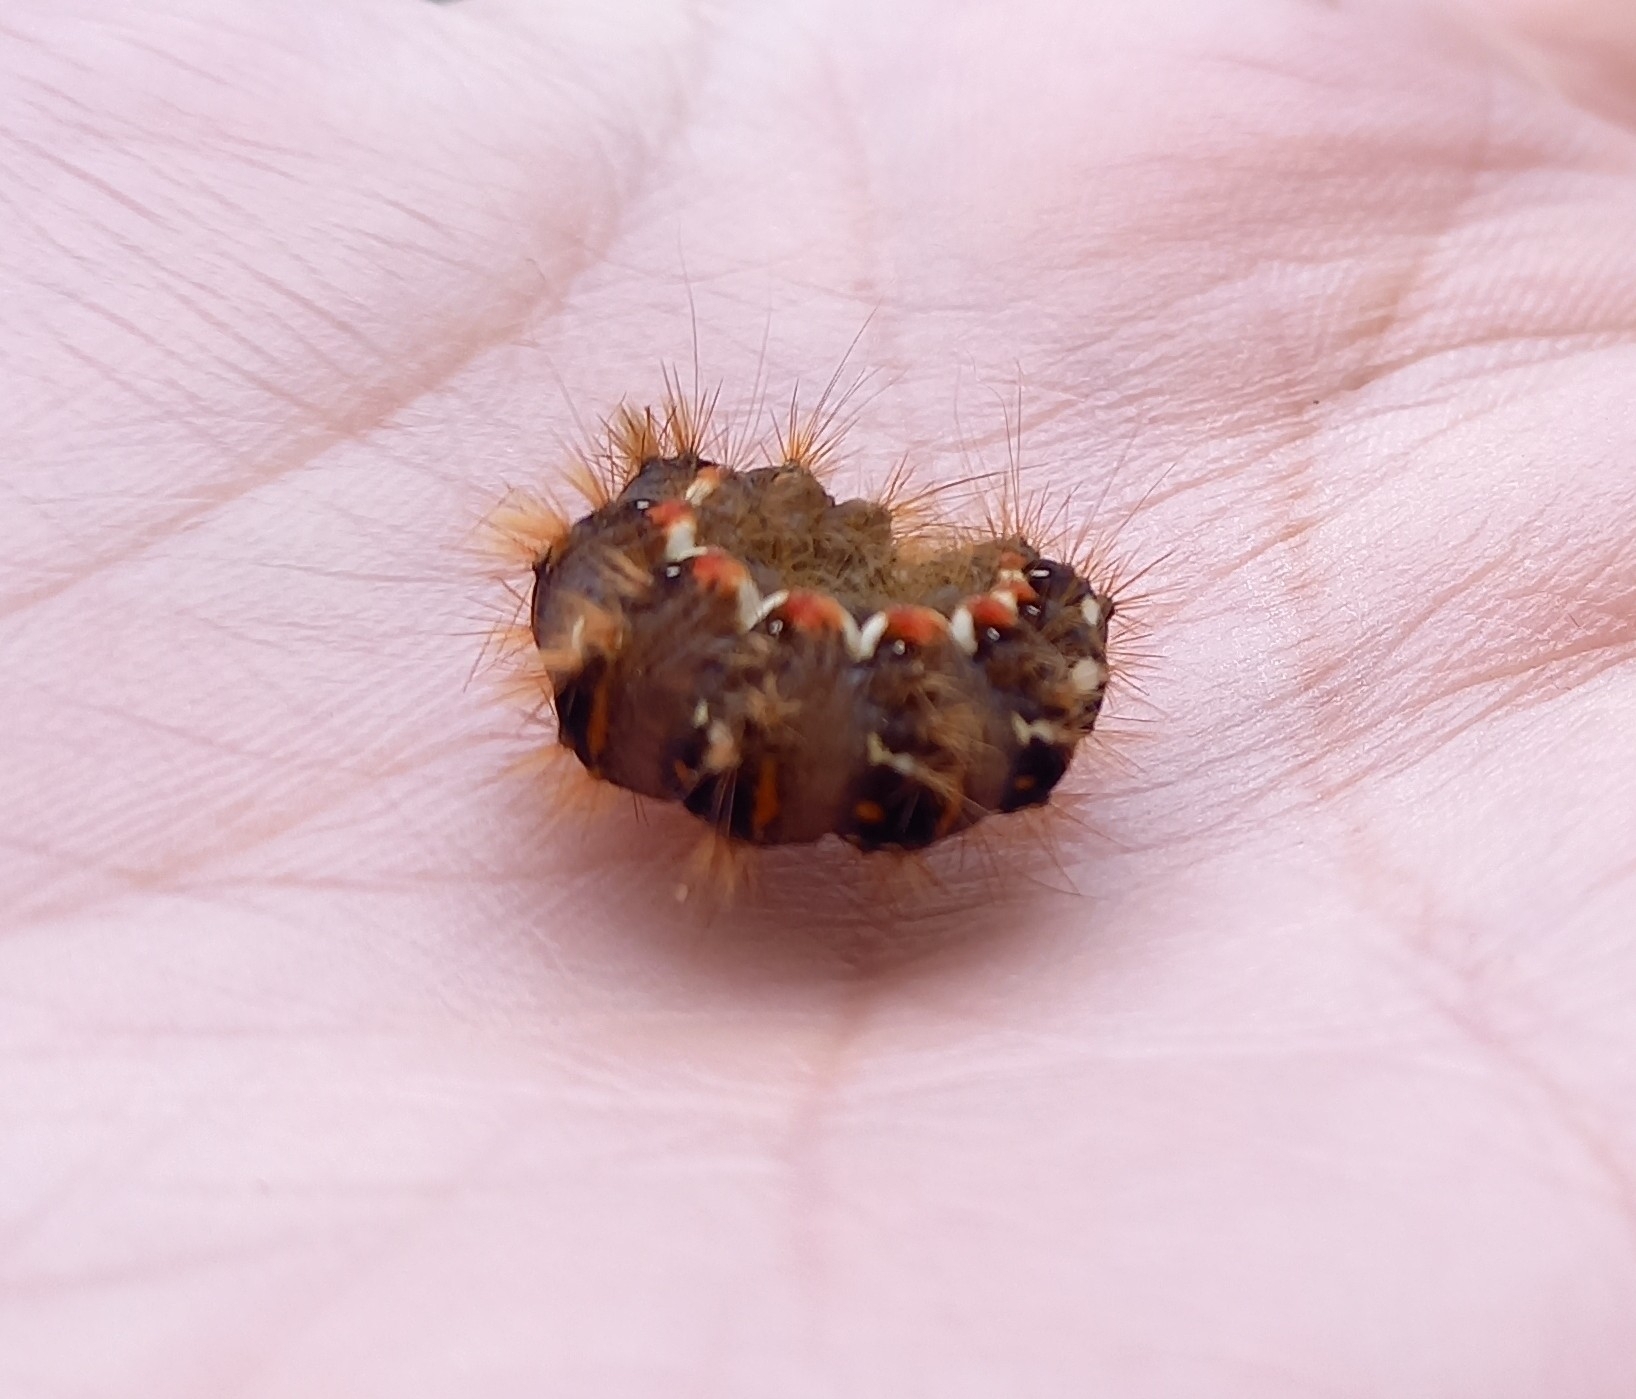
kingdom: Animalia
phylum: Arthropoda
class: Insecta
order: Lepidoptera
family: Noctuidae
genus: Acronicta
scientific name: Acronicta rumicis
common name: Knot grass
